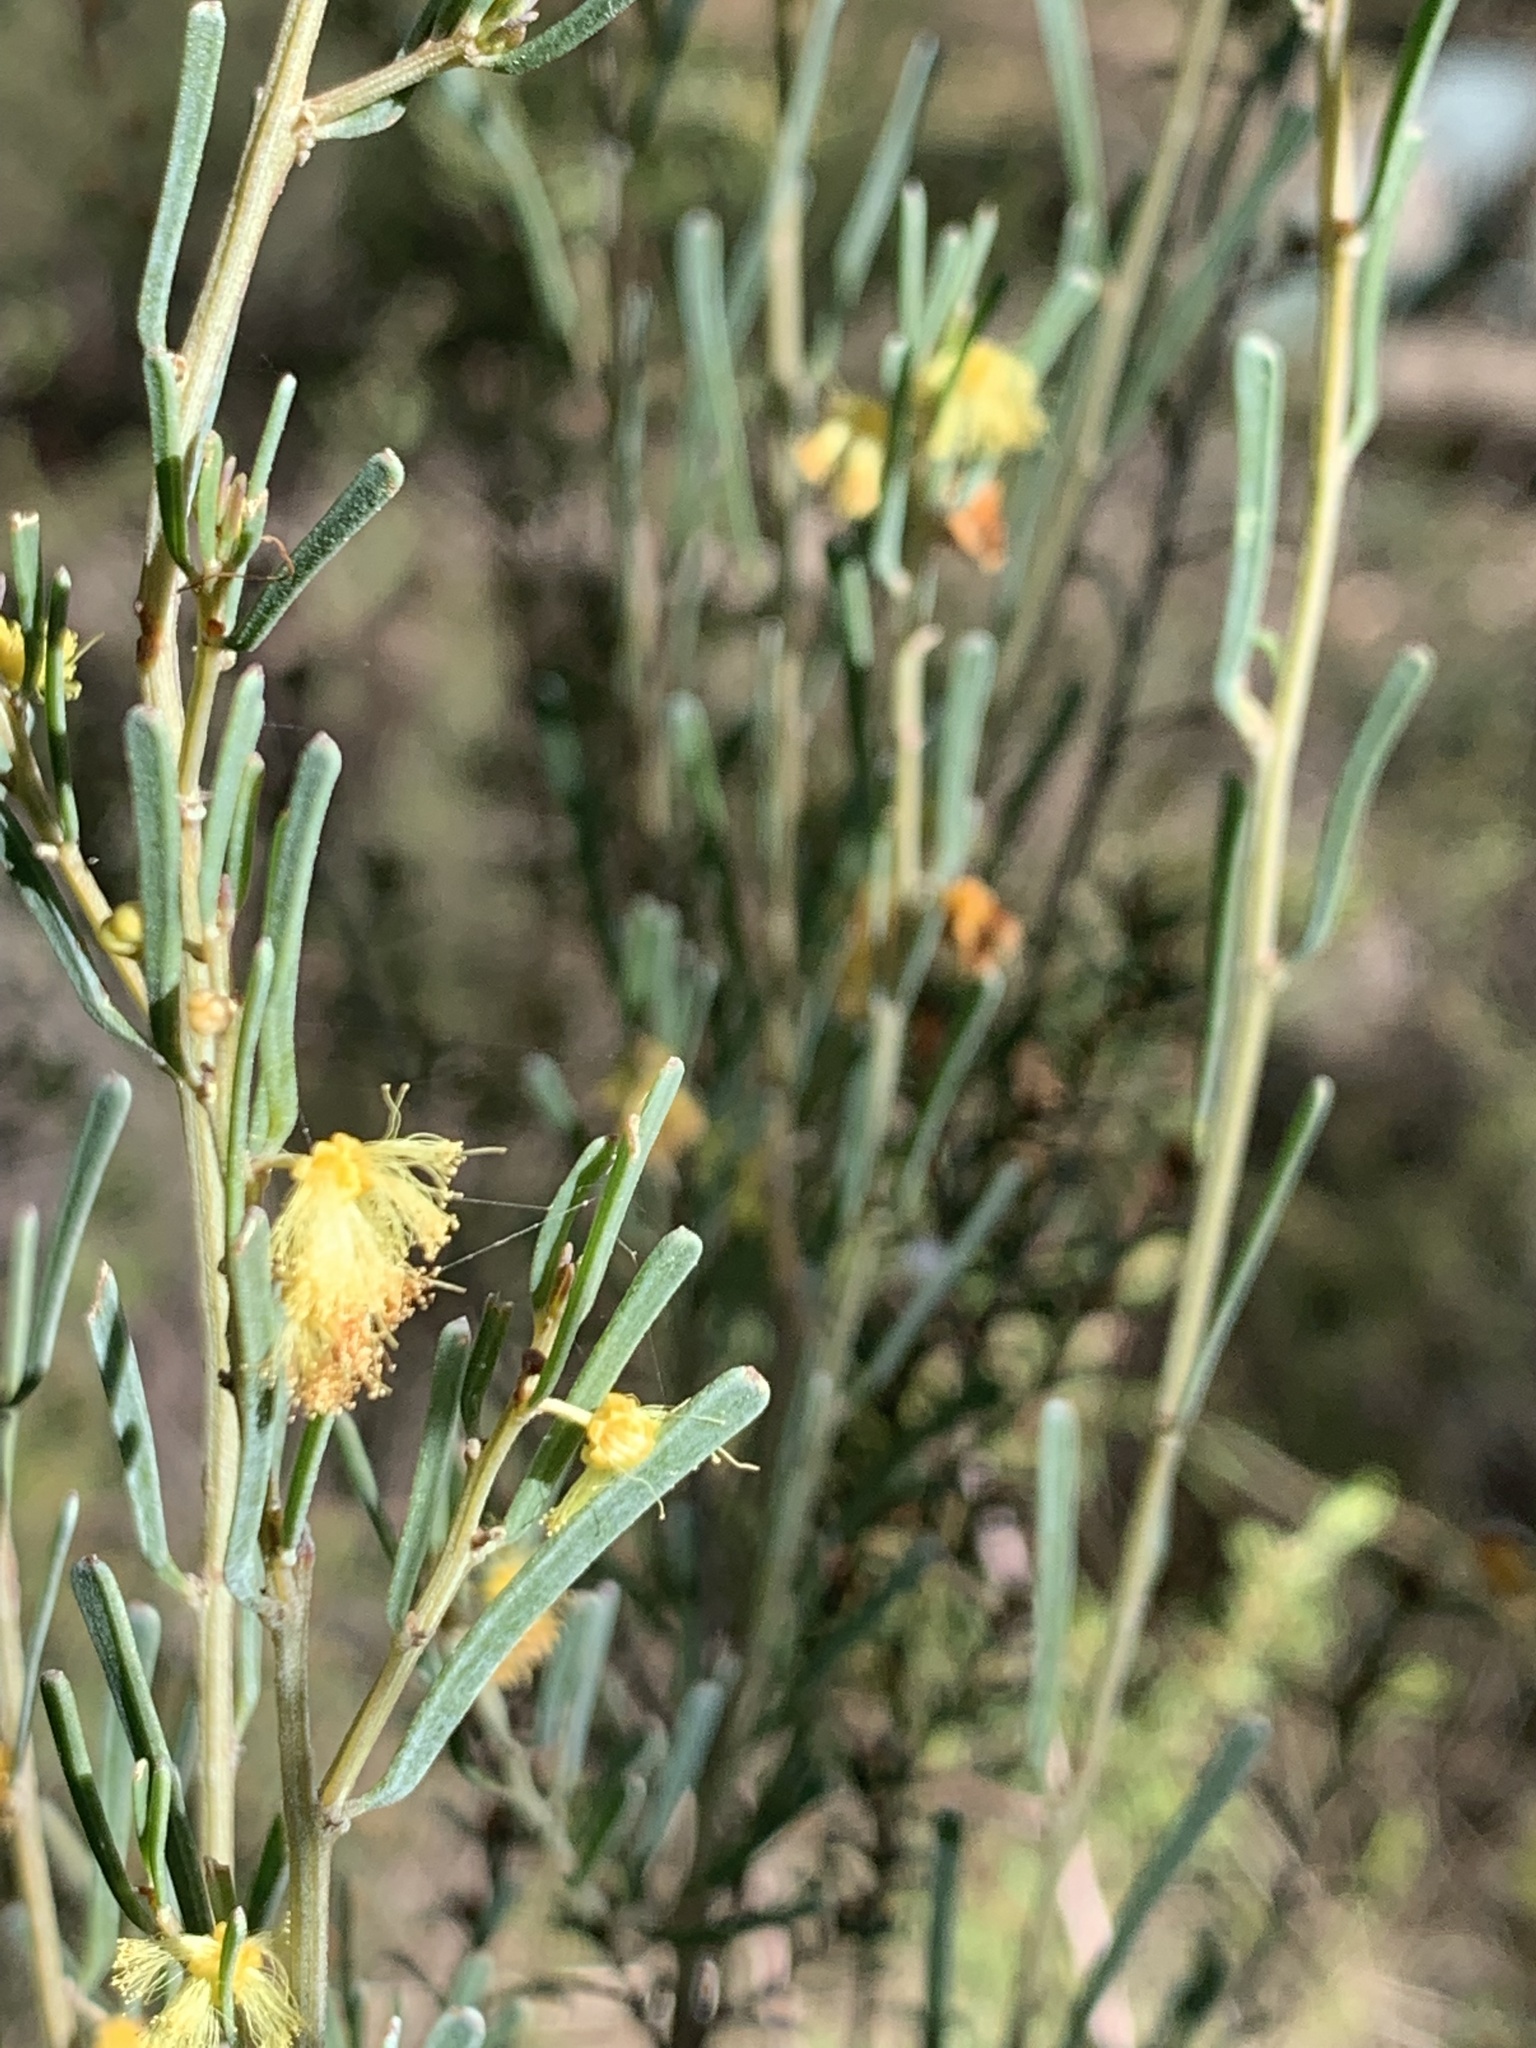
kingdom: Plantae
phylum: Tracheophyta
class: Magnoliopsida
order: Fabales
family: Fabaceae
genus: Acacia
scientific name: Acacia flexifolia
